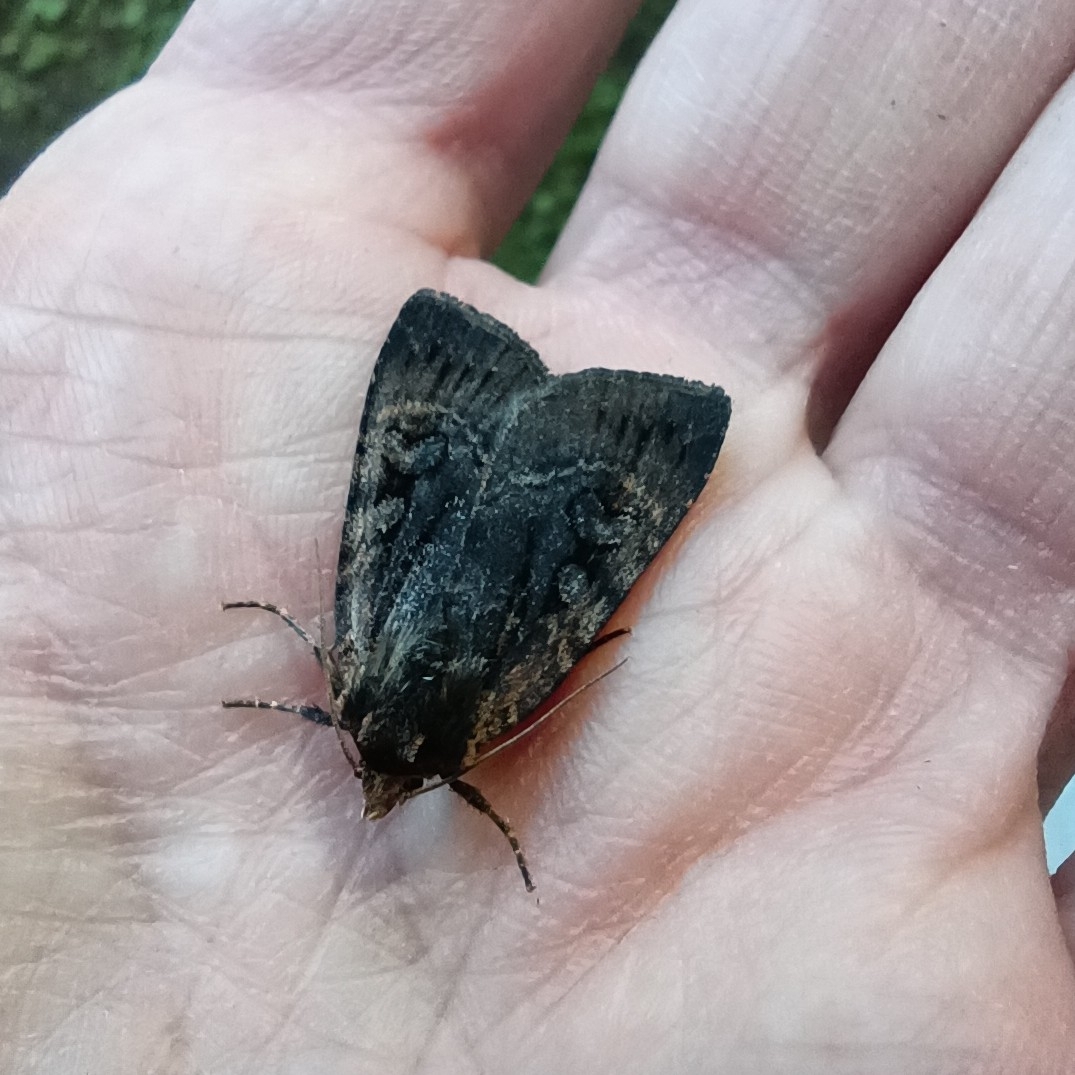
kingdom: Animalia
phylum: Arthropoda
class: Insecta
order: Lepidoptera
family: Noctuidae
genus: Eugraphe
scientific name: Eugraphe sigma
